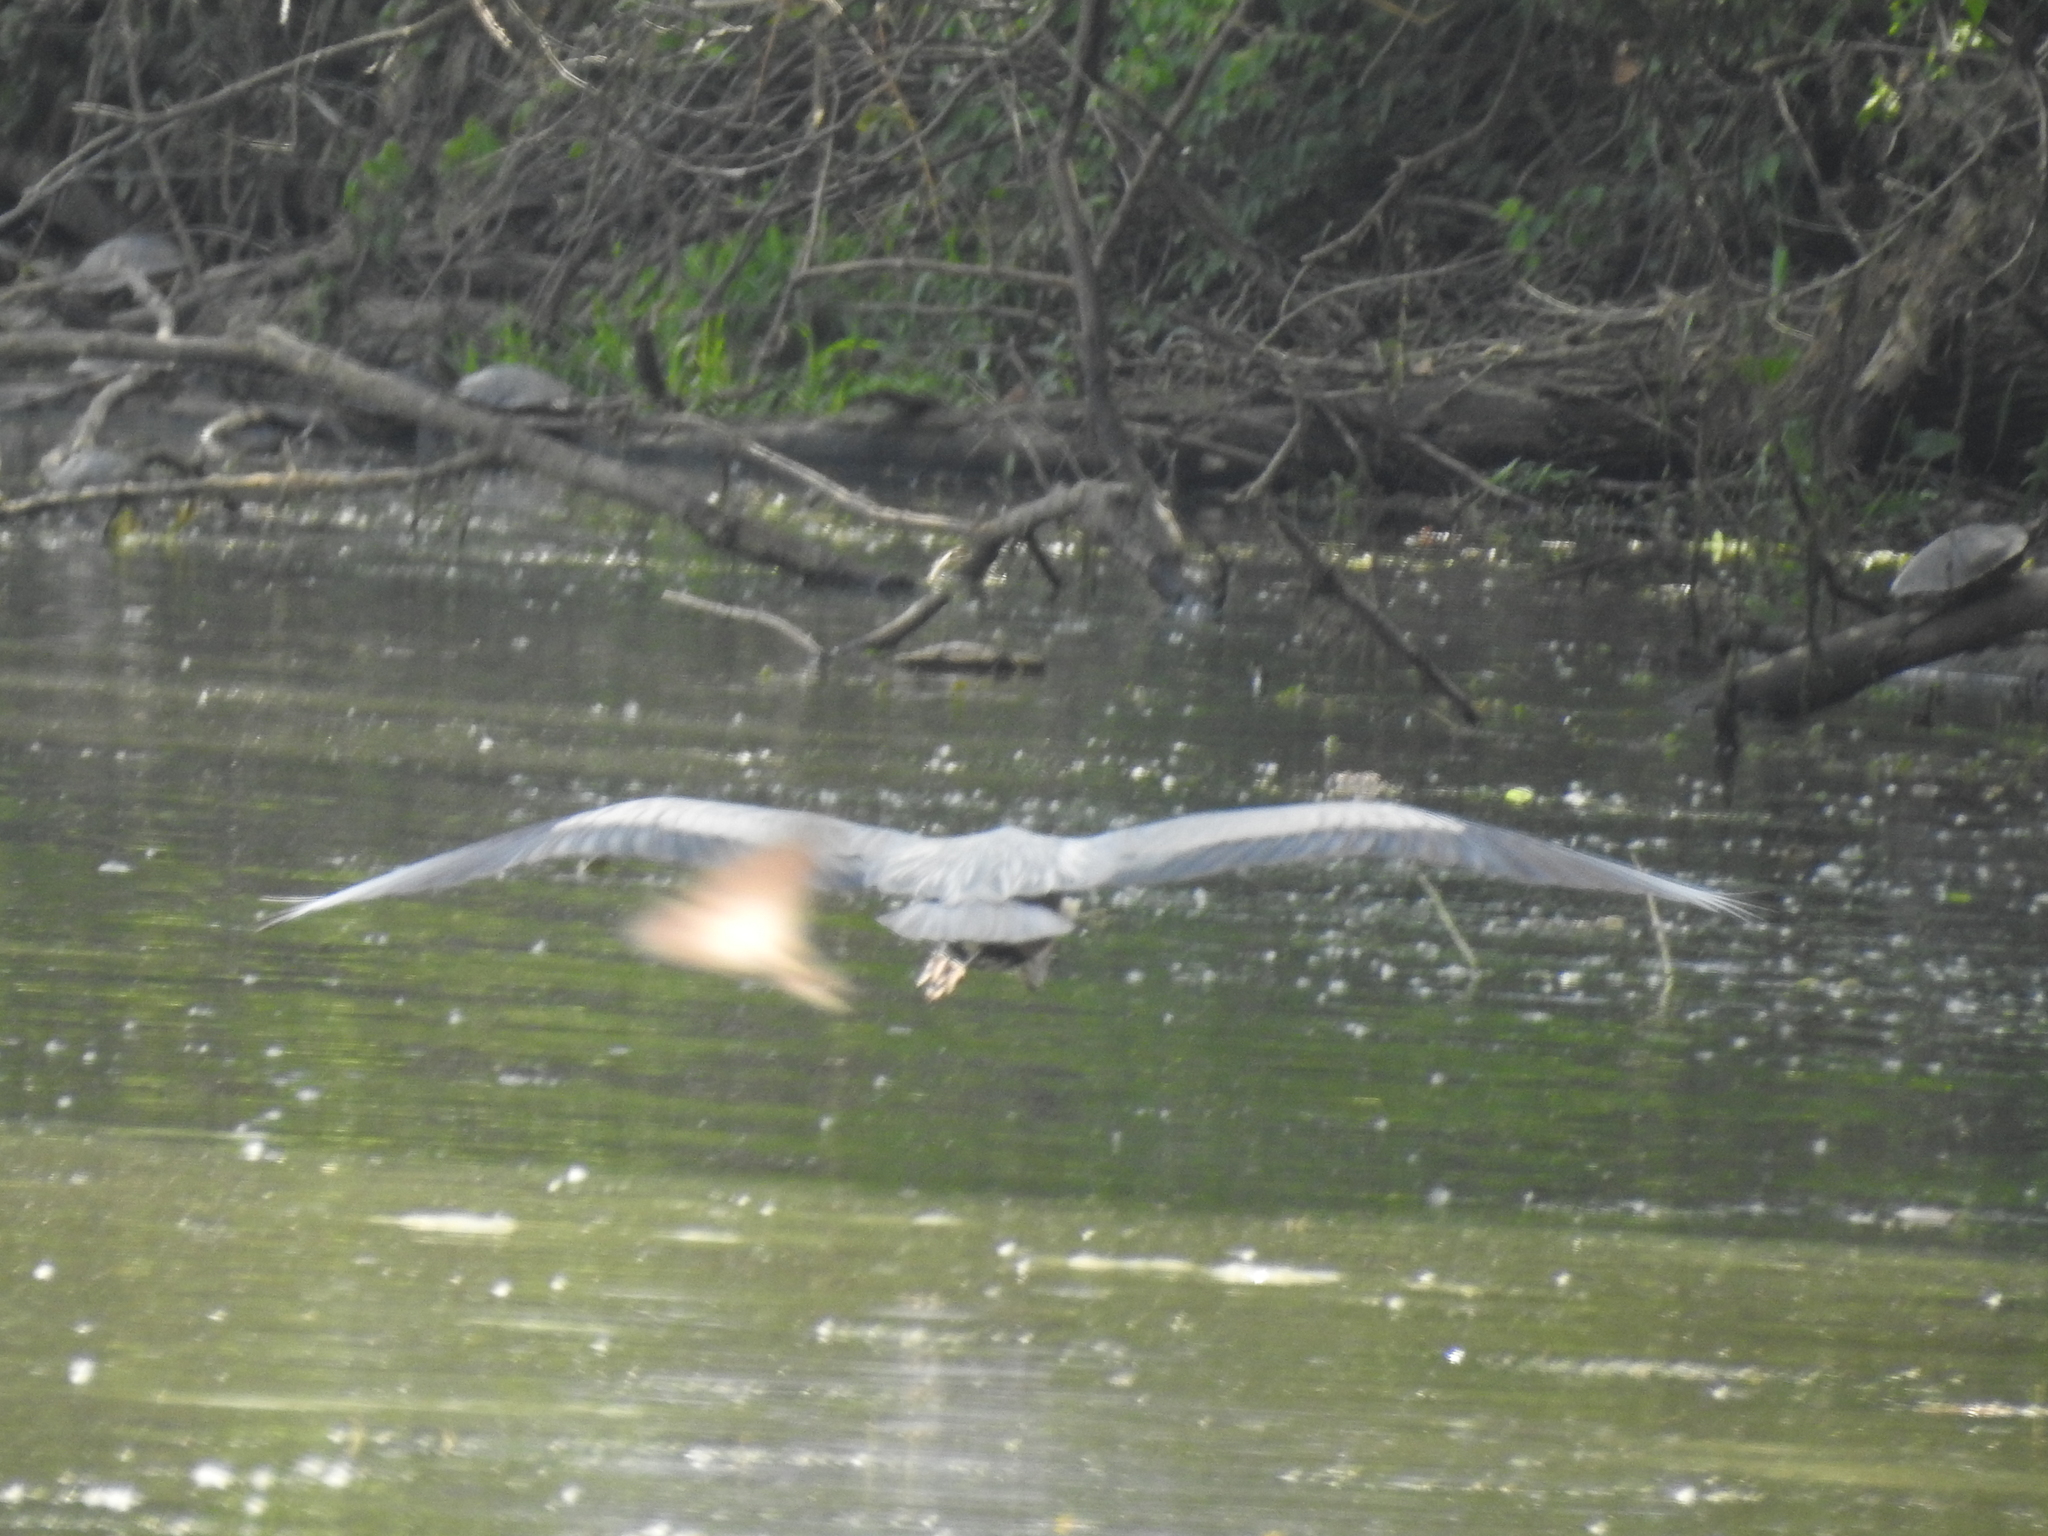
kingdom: Animalia
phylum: Chordata
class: Aves
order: Pelecaniformes
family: Ardeidae
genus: Ardea
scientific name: Ardea herodias
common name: Great blue heron
